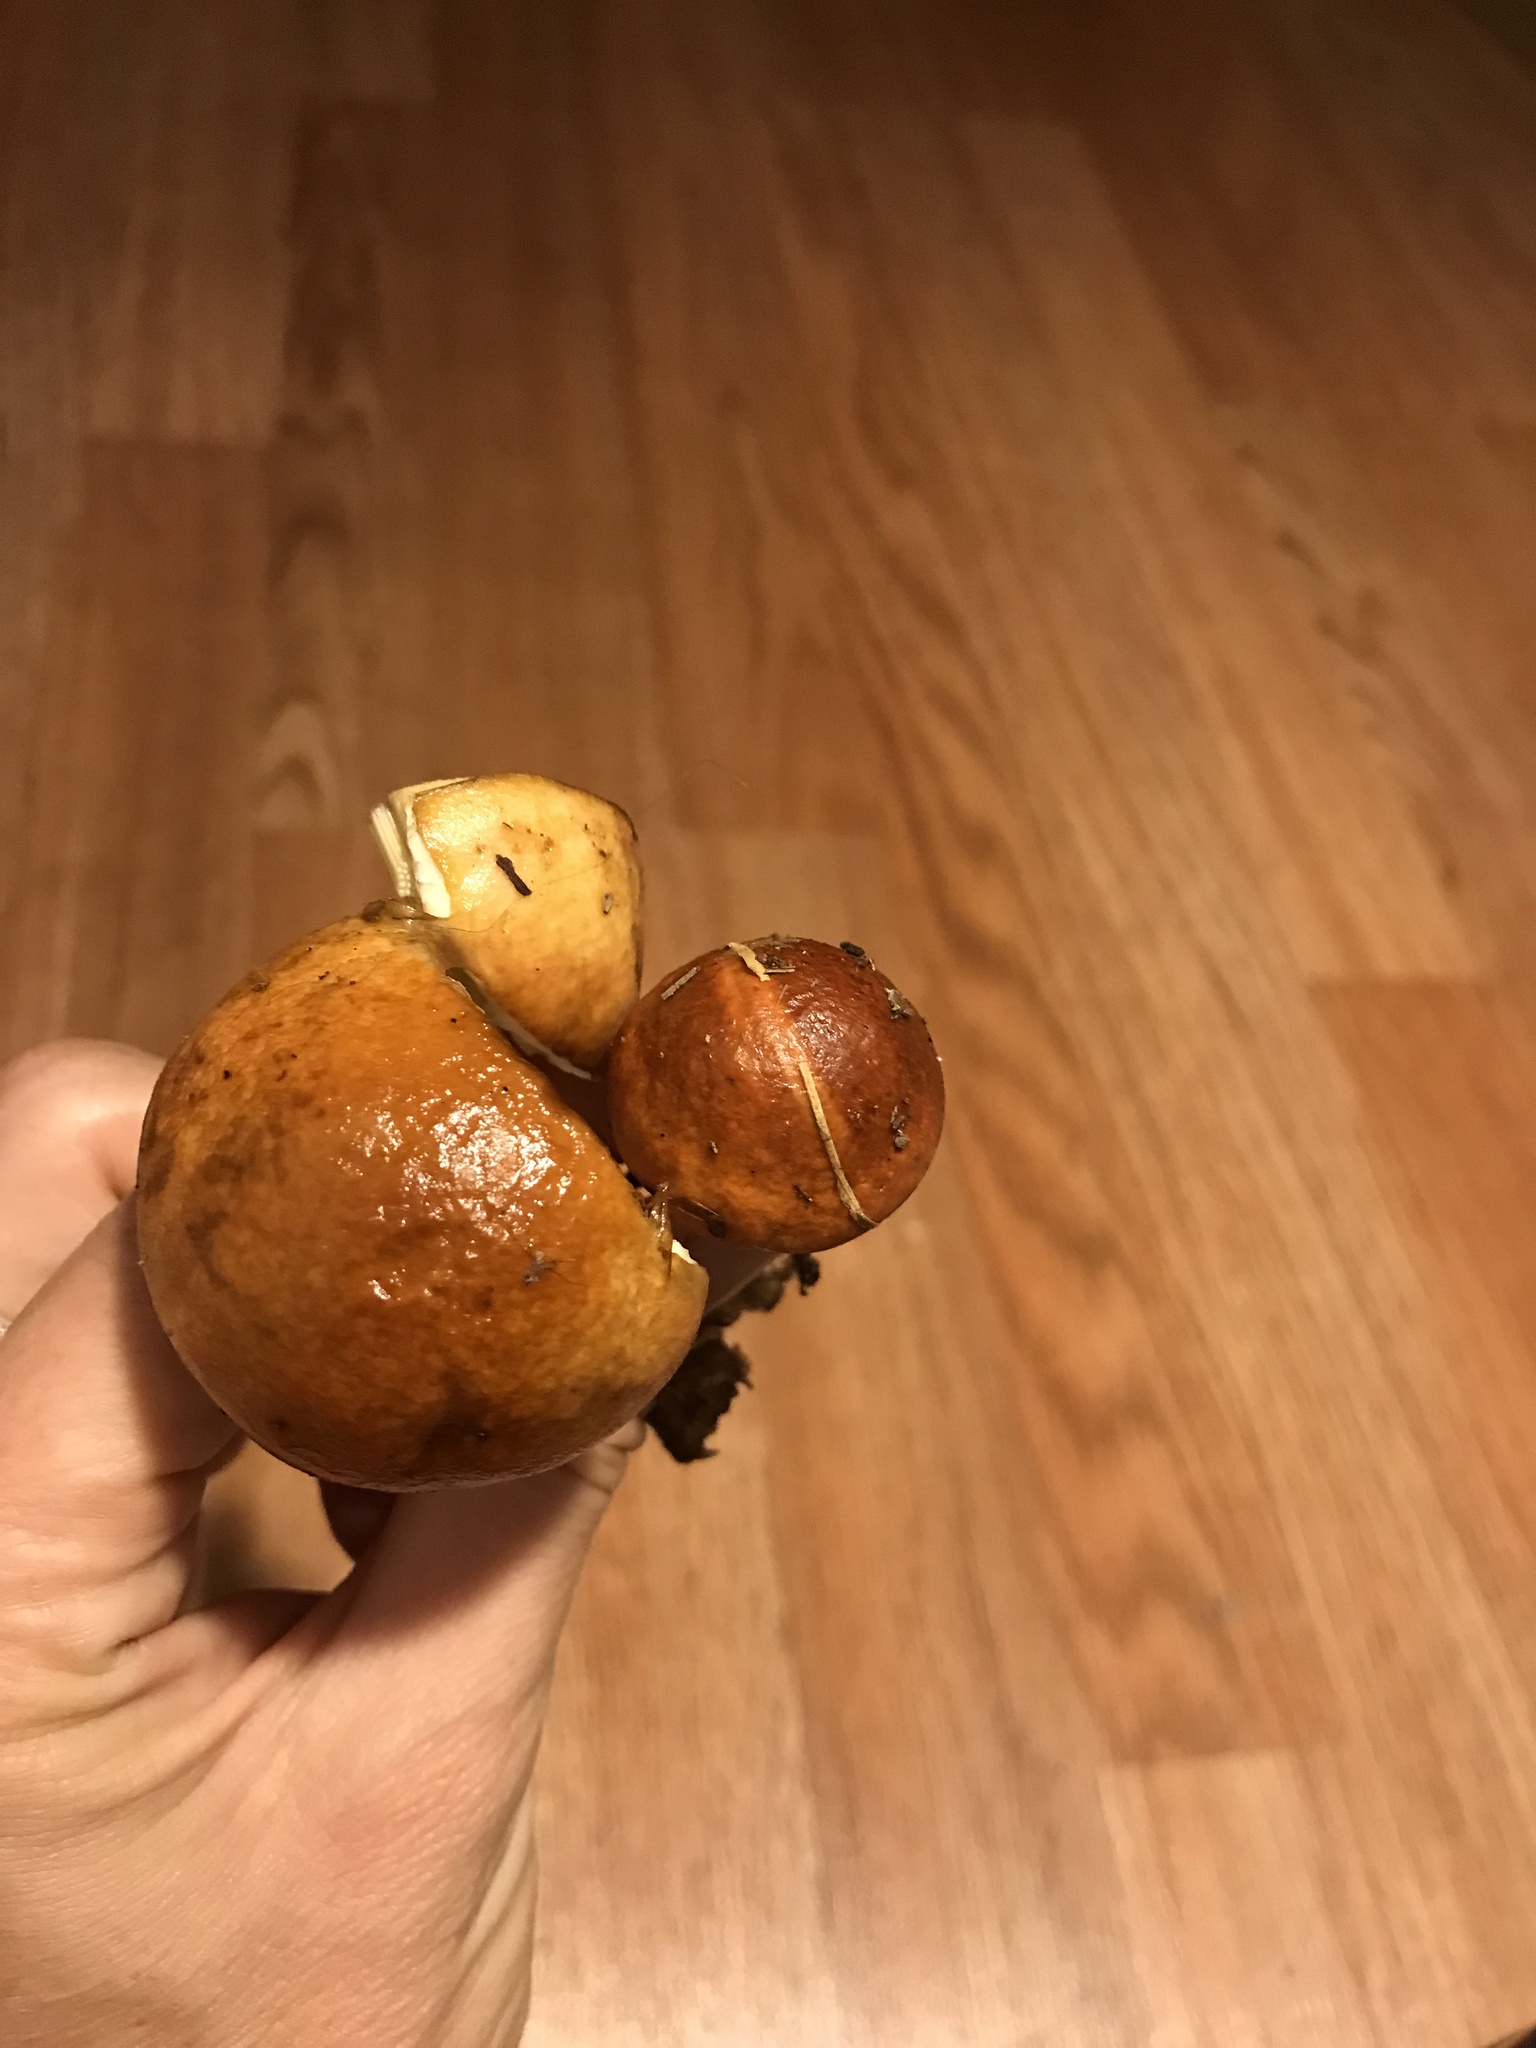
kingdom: Fungi
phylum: Basidiomycota
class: Agaricomycetes
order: Boletales
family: Boletaceae
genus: Leccinum
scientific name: Leccinum longicurvipes
